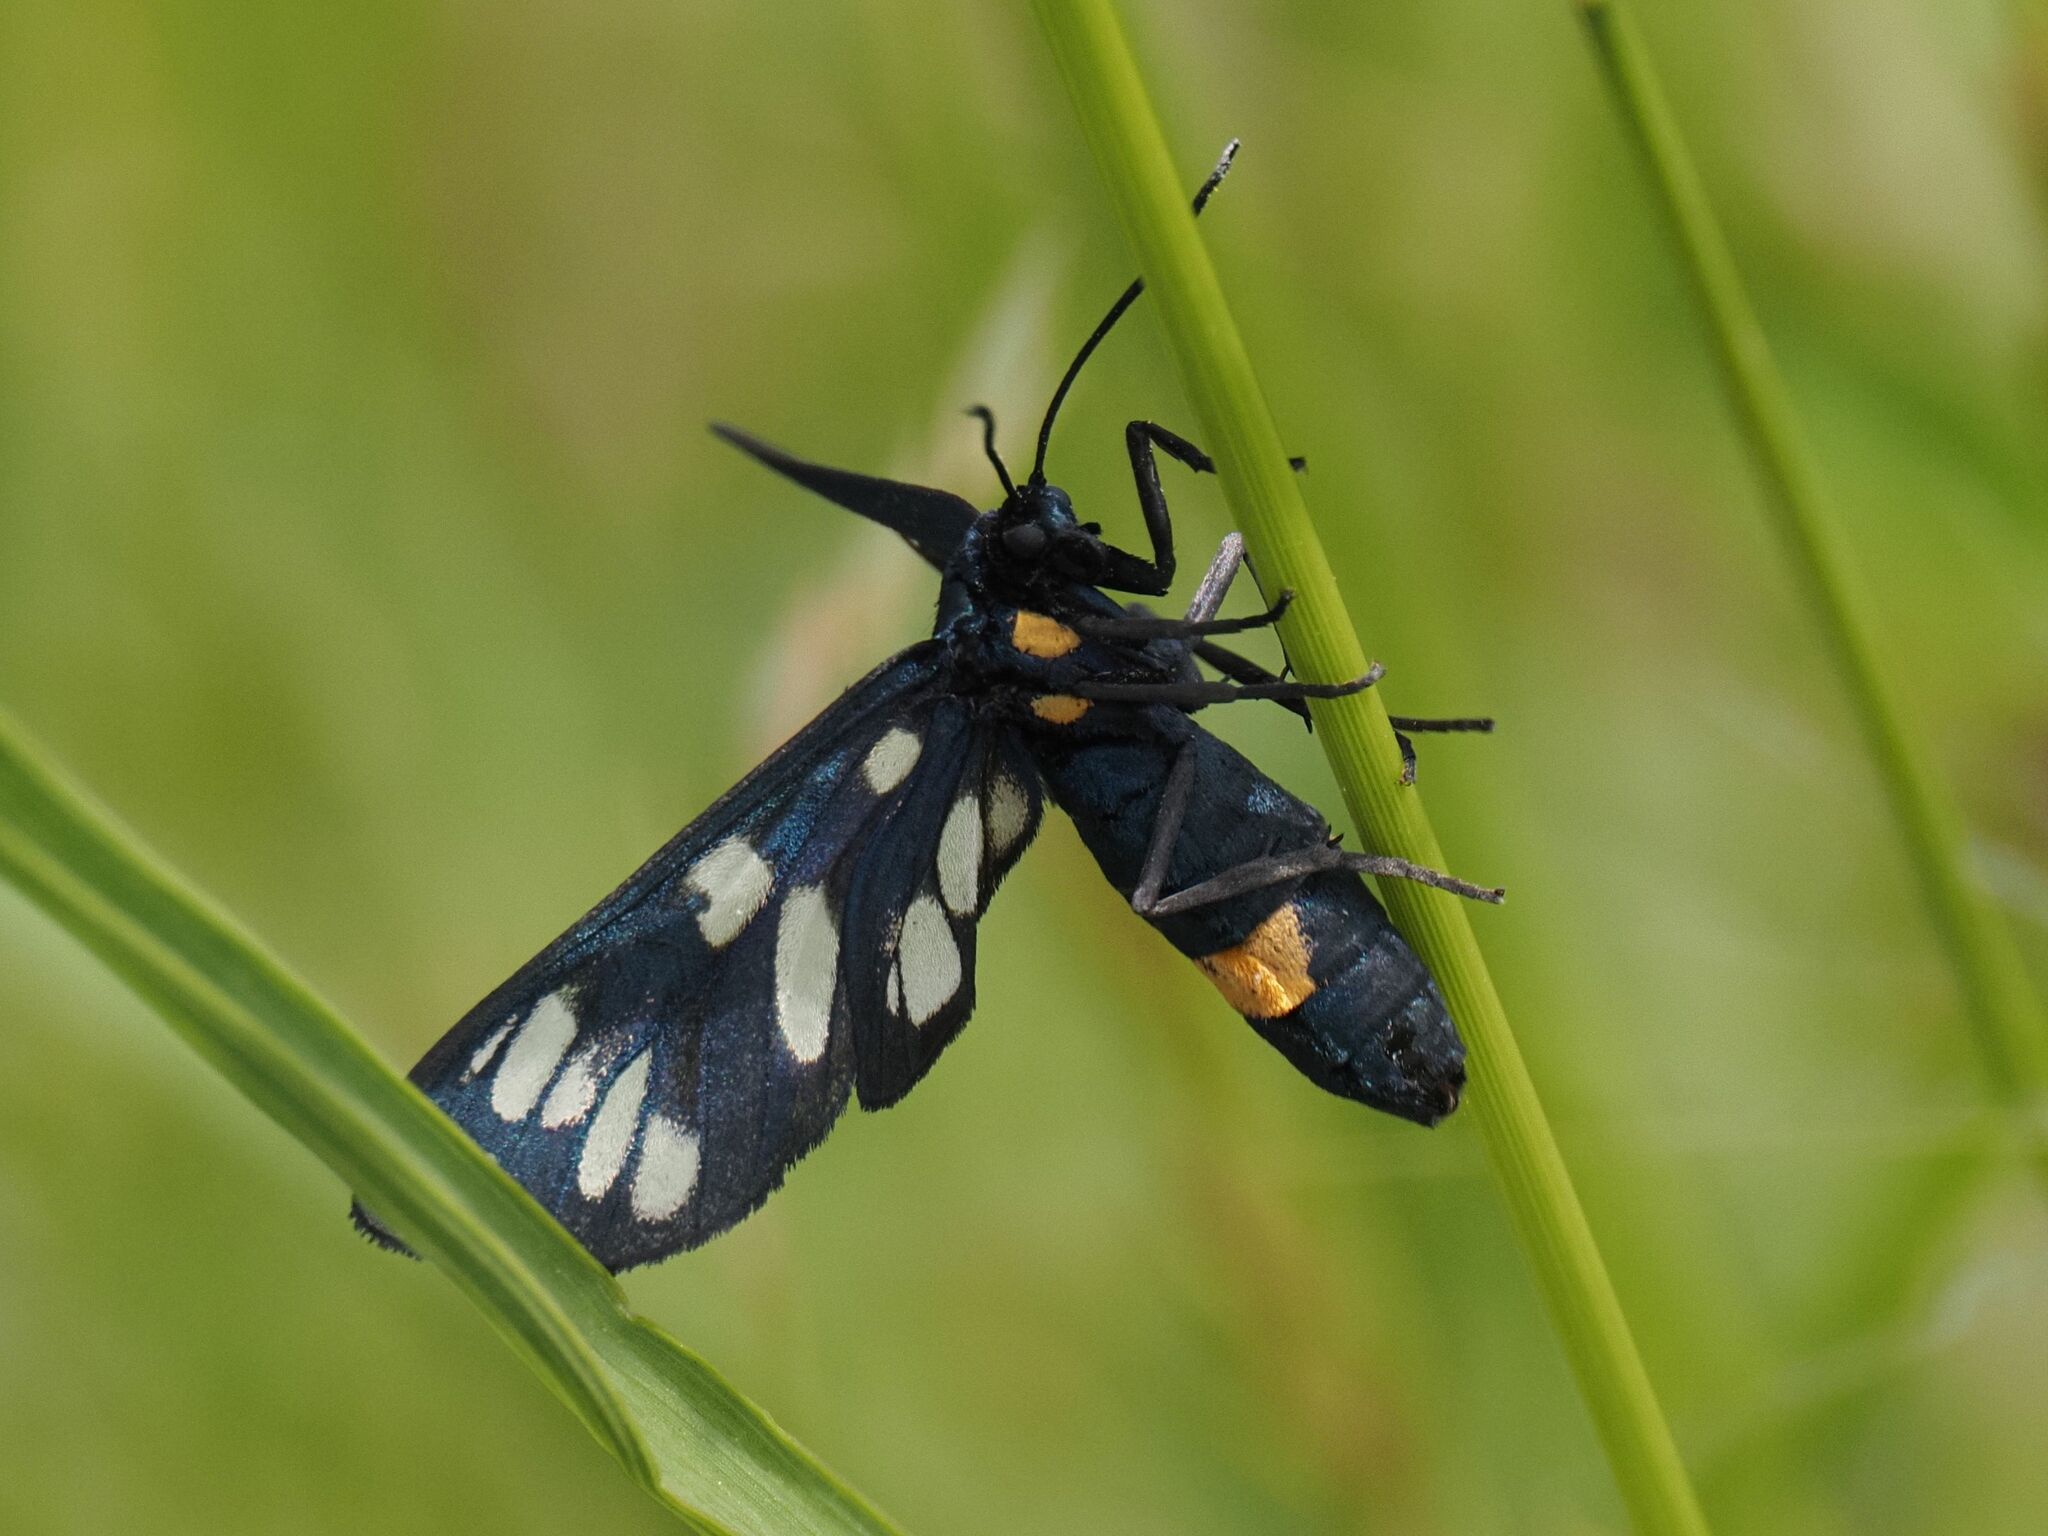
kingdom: Animalia
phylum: Arthropoda
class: Insecta
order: Lepidoptera
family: Erebidae
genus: Amata
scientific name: Amata phegea
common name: Nine-spotted
